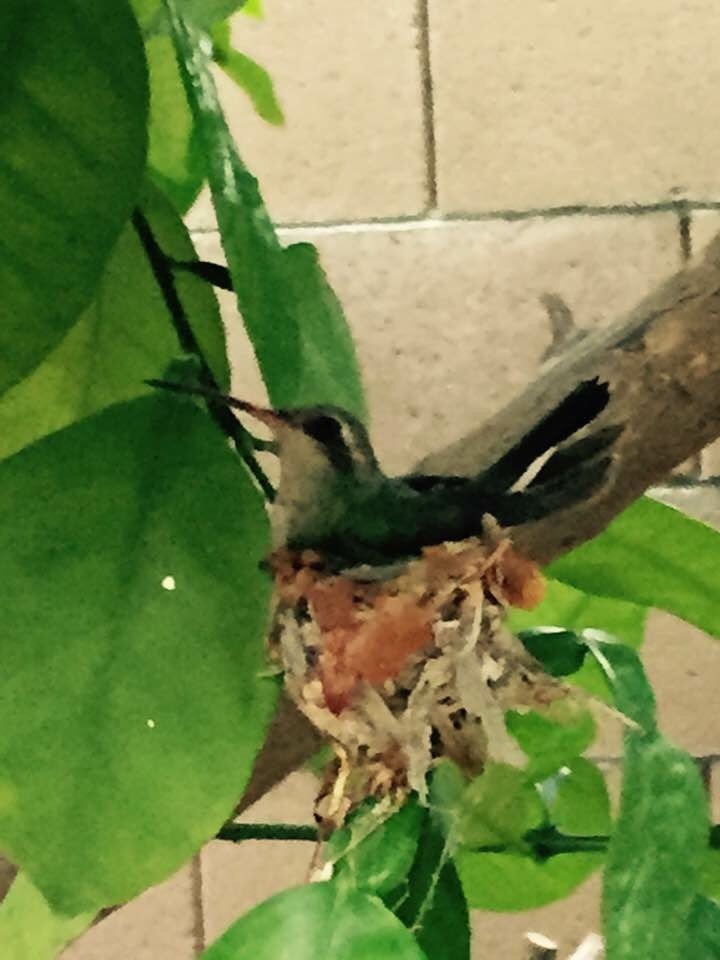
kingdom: Animalia
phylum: Chordata
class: Aves
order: Apodiformes
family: Trochilidae
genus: Cynanthus
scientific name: Cynanthus latirostris
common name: Broad-billed hummingbird
